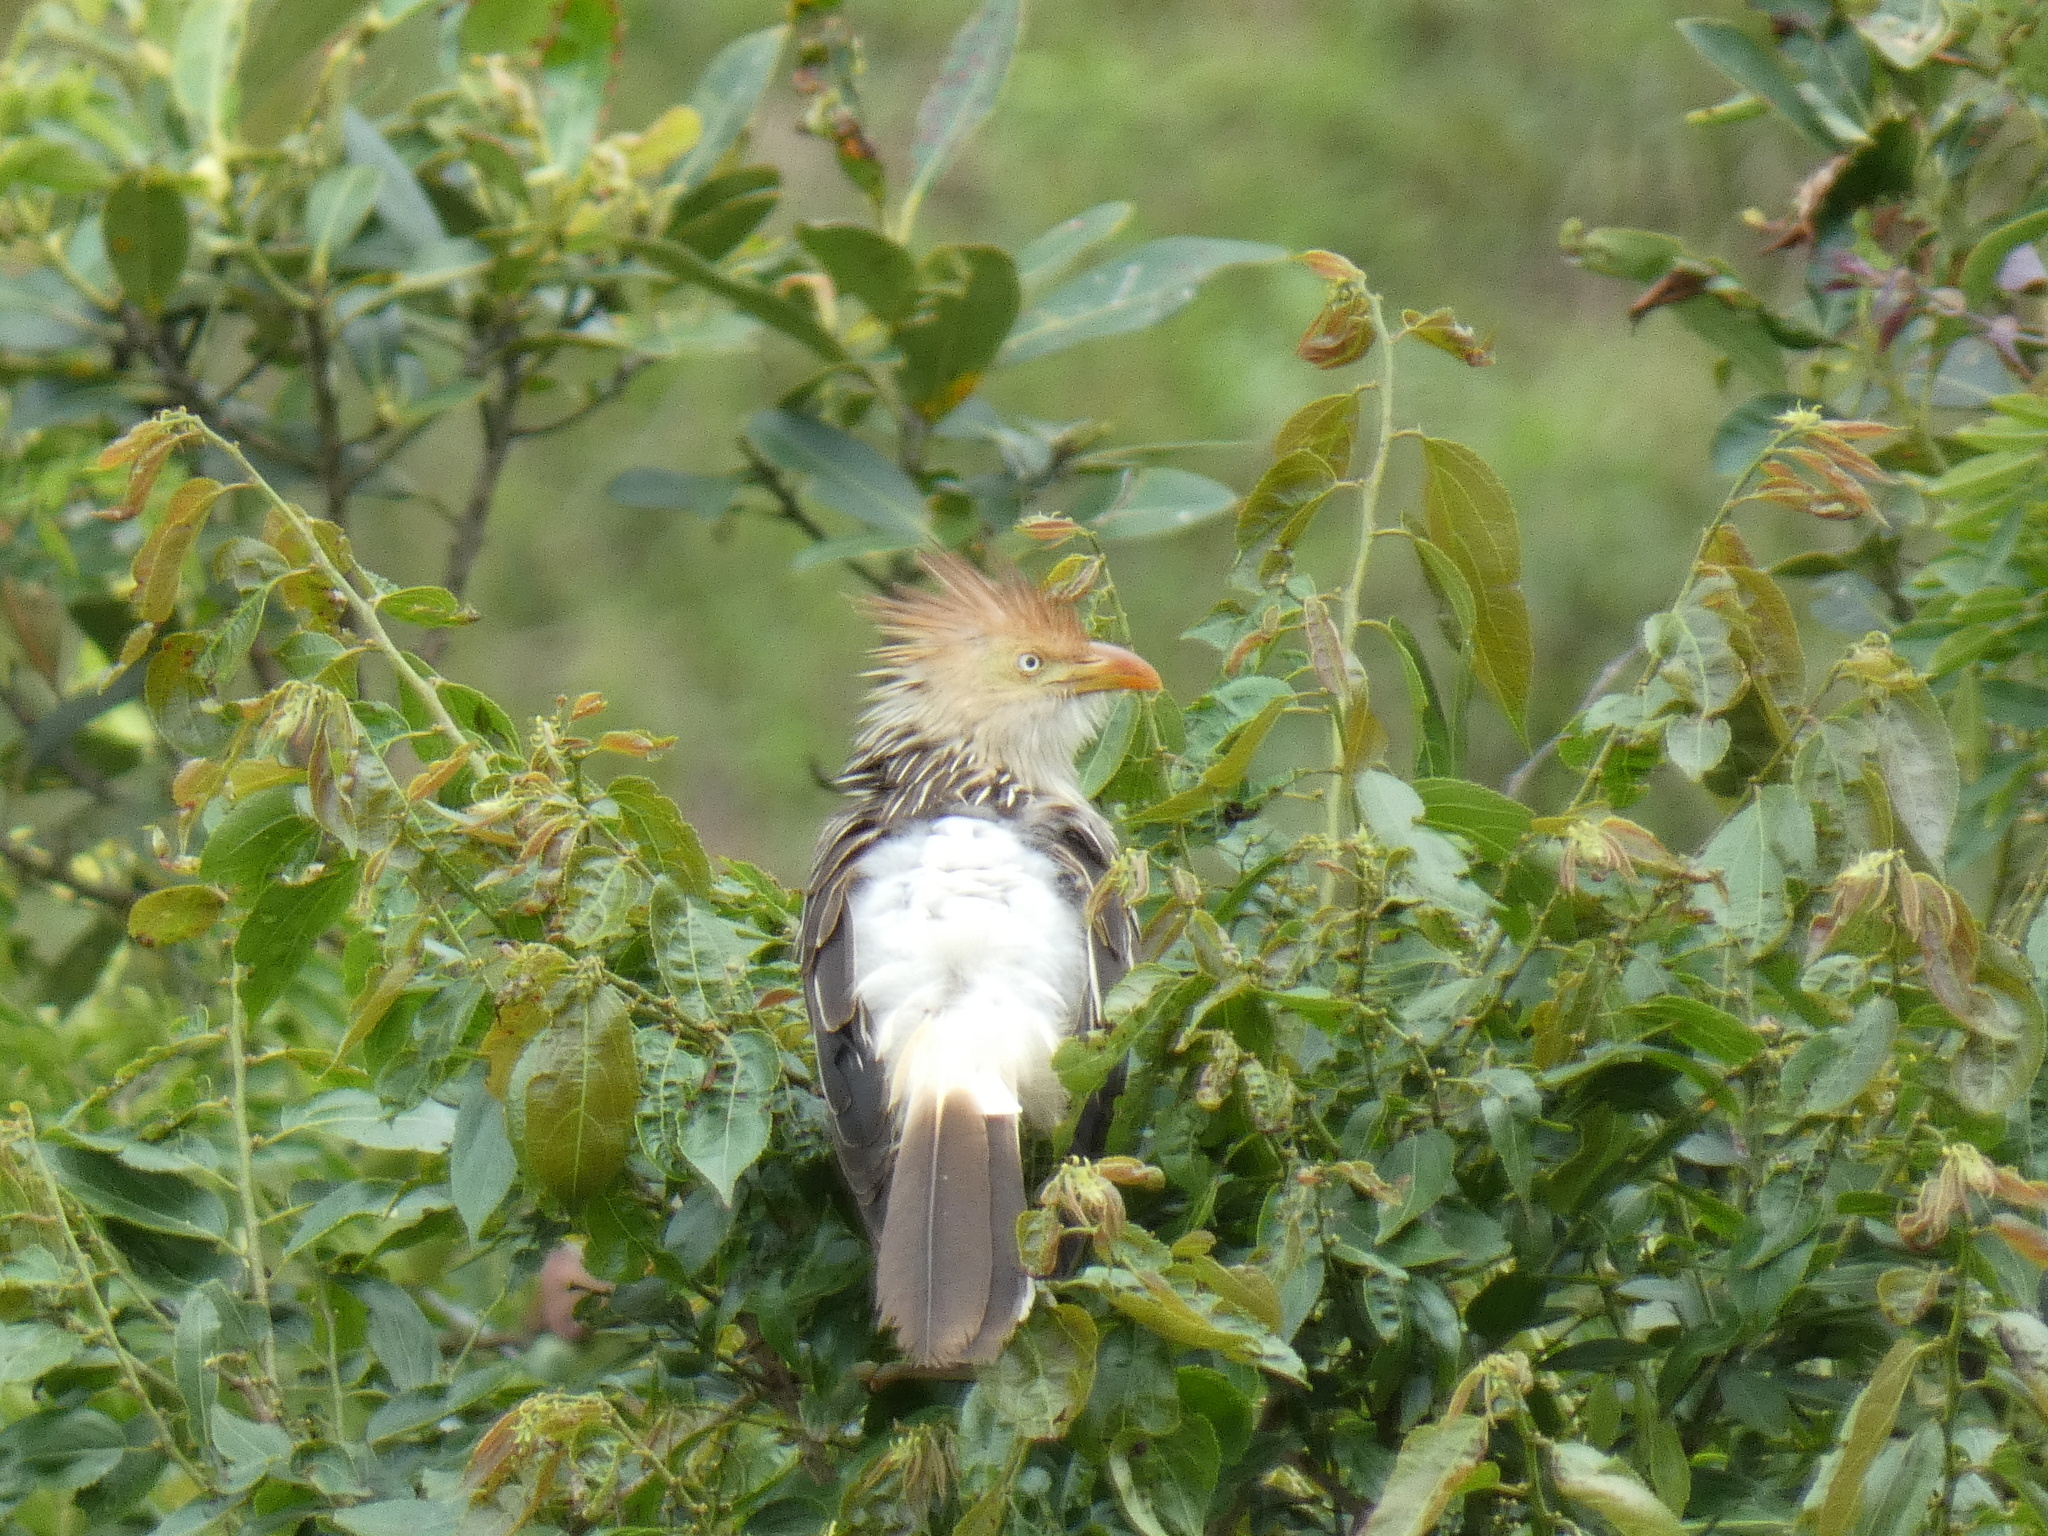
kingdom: Animalia
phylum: Chordata
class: Aves
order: Cuculiformes
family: Cuculidae
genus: Guira
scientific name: Guira guira
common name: Guira cuckoo
